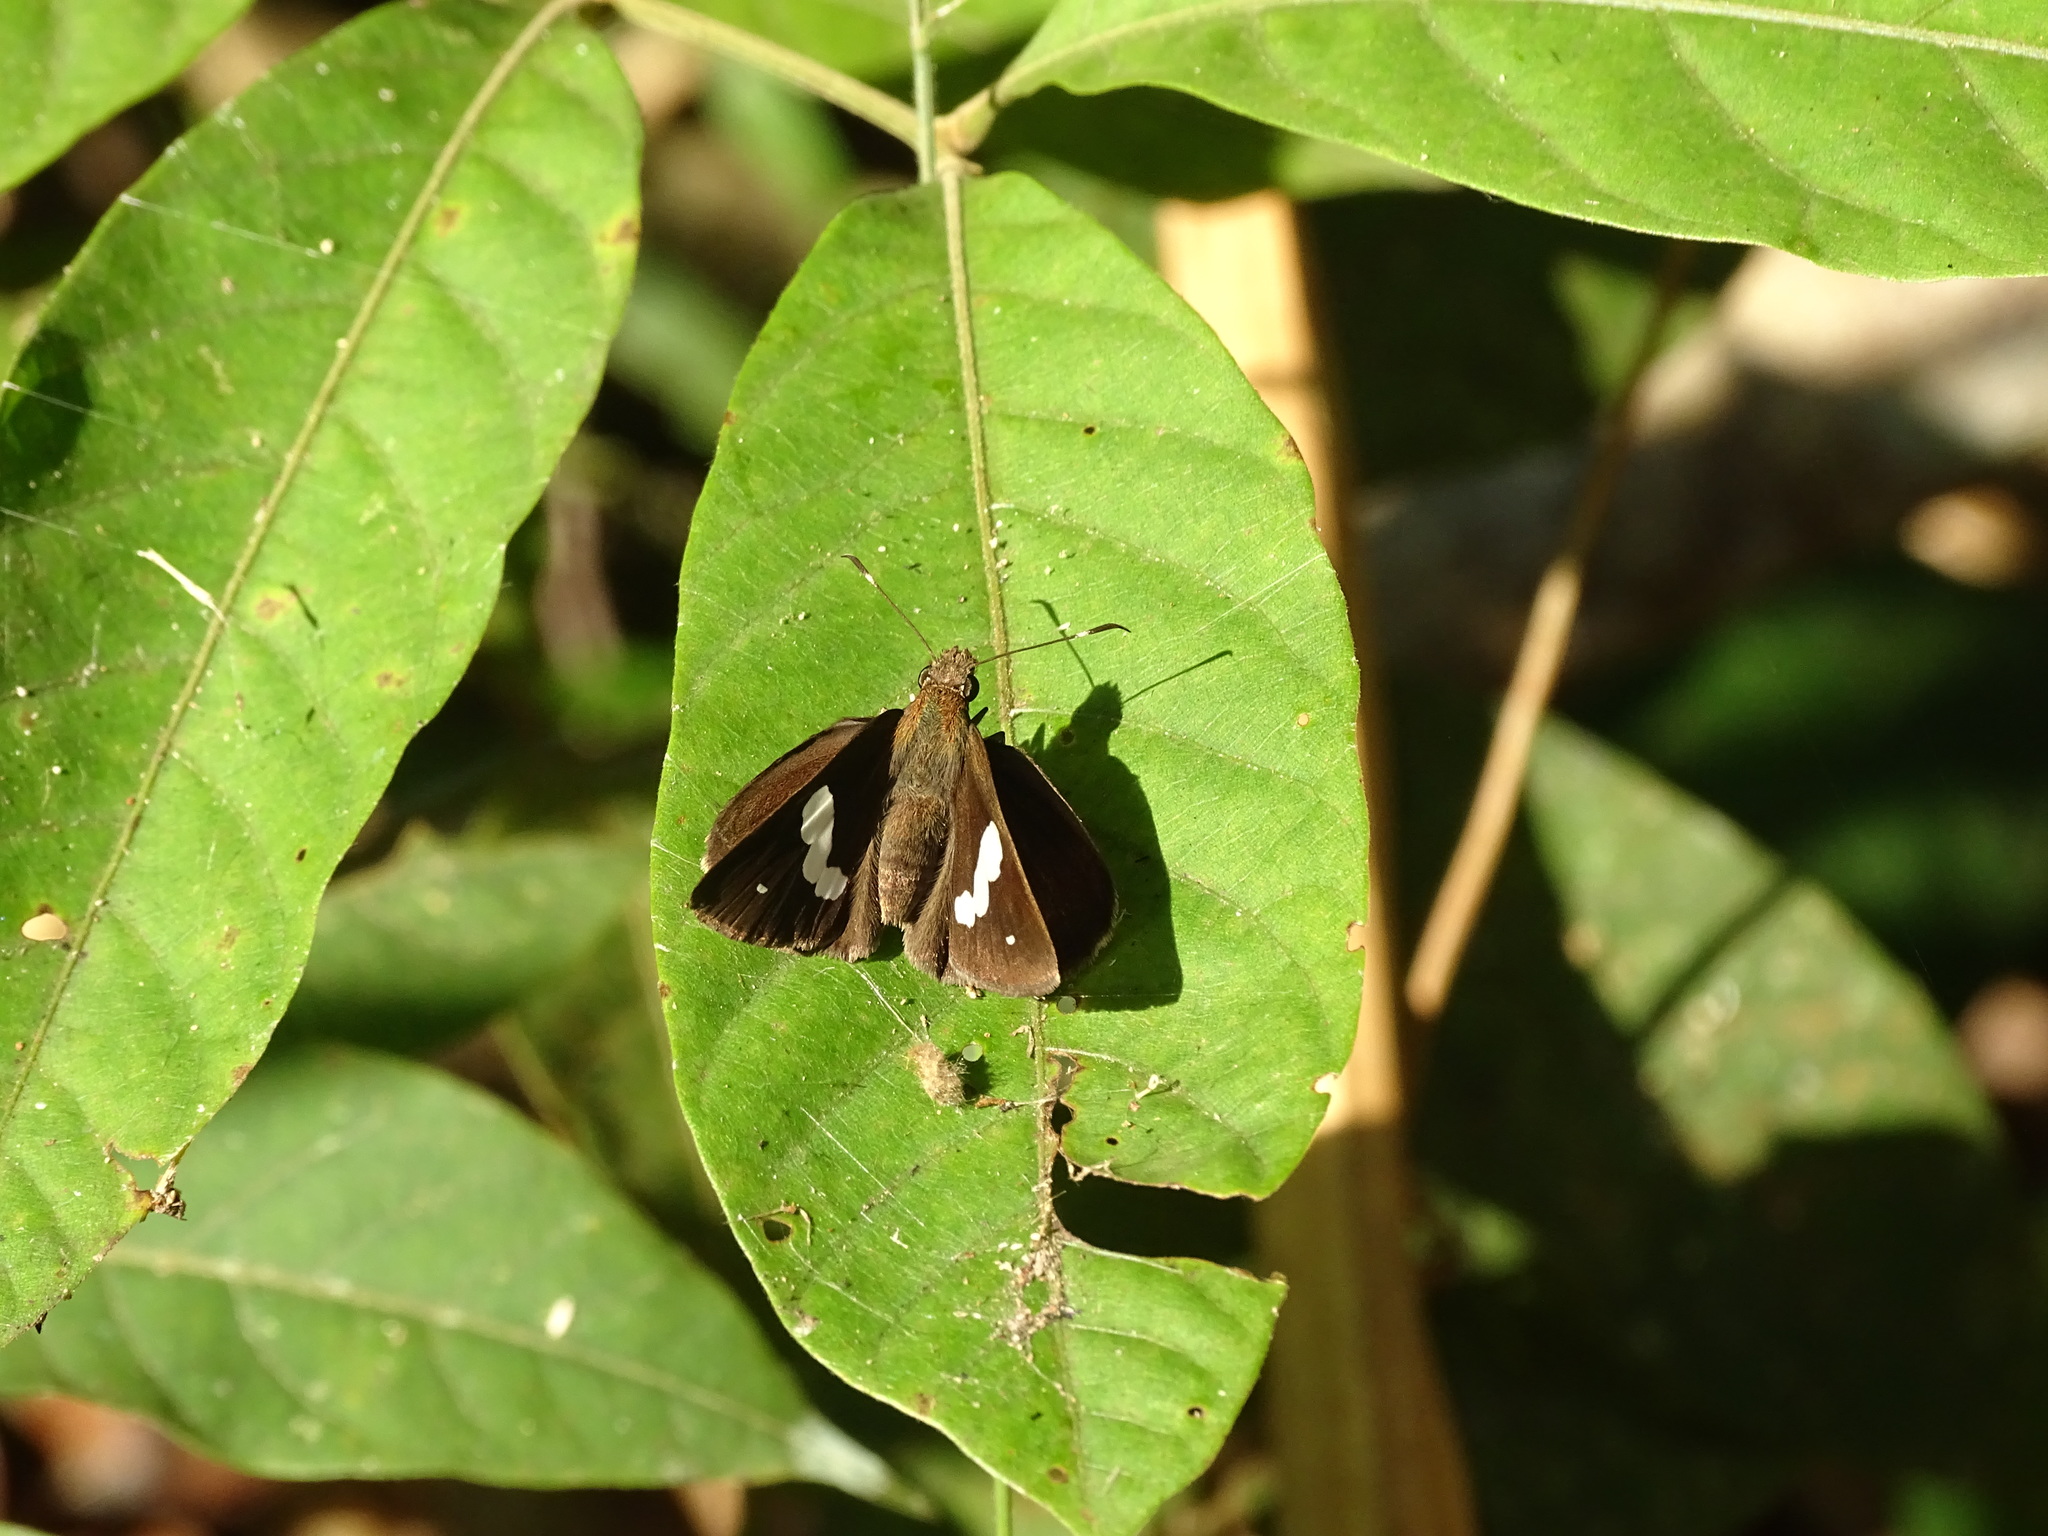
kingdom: Animalia
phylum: Arthropoda
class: Insecta
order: Lepidoptera
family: Hesperiidae
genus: Notocrypta
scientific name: Notocrypta paralysos
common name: Common banded demon
